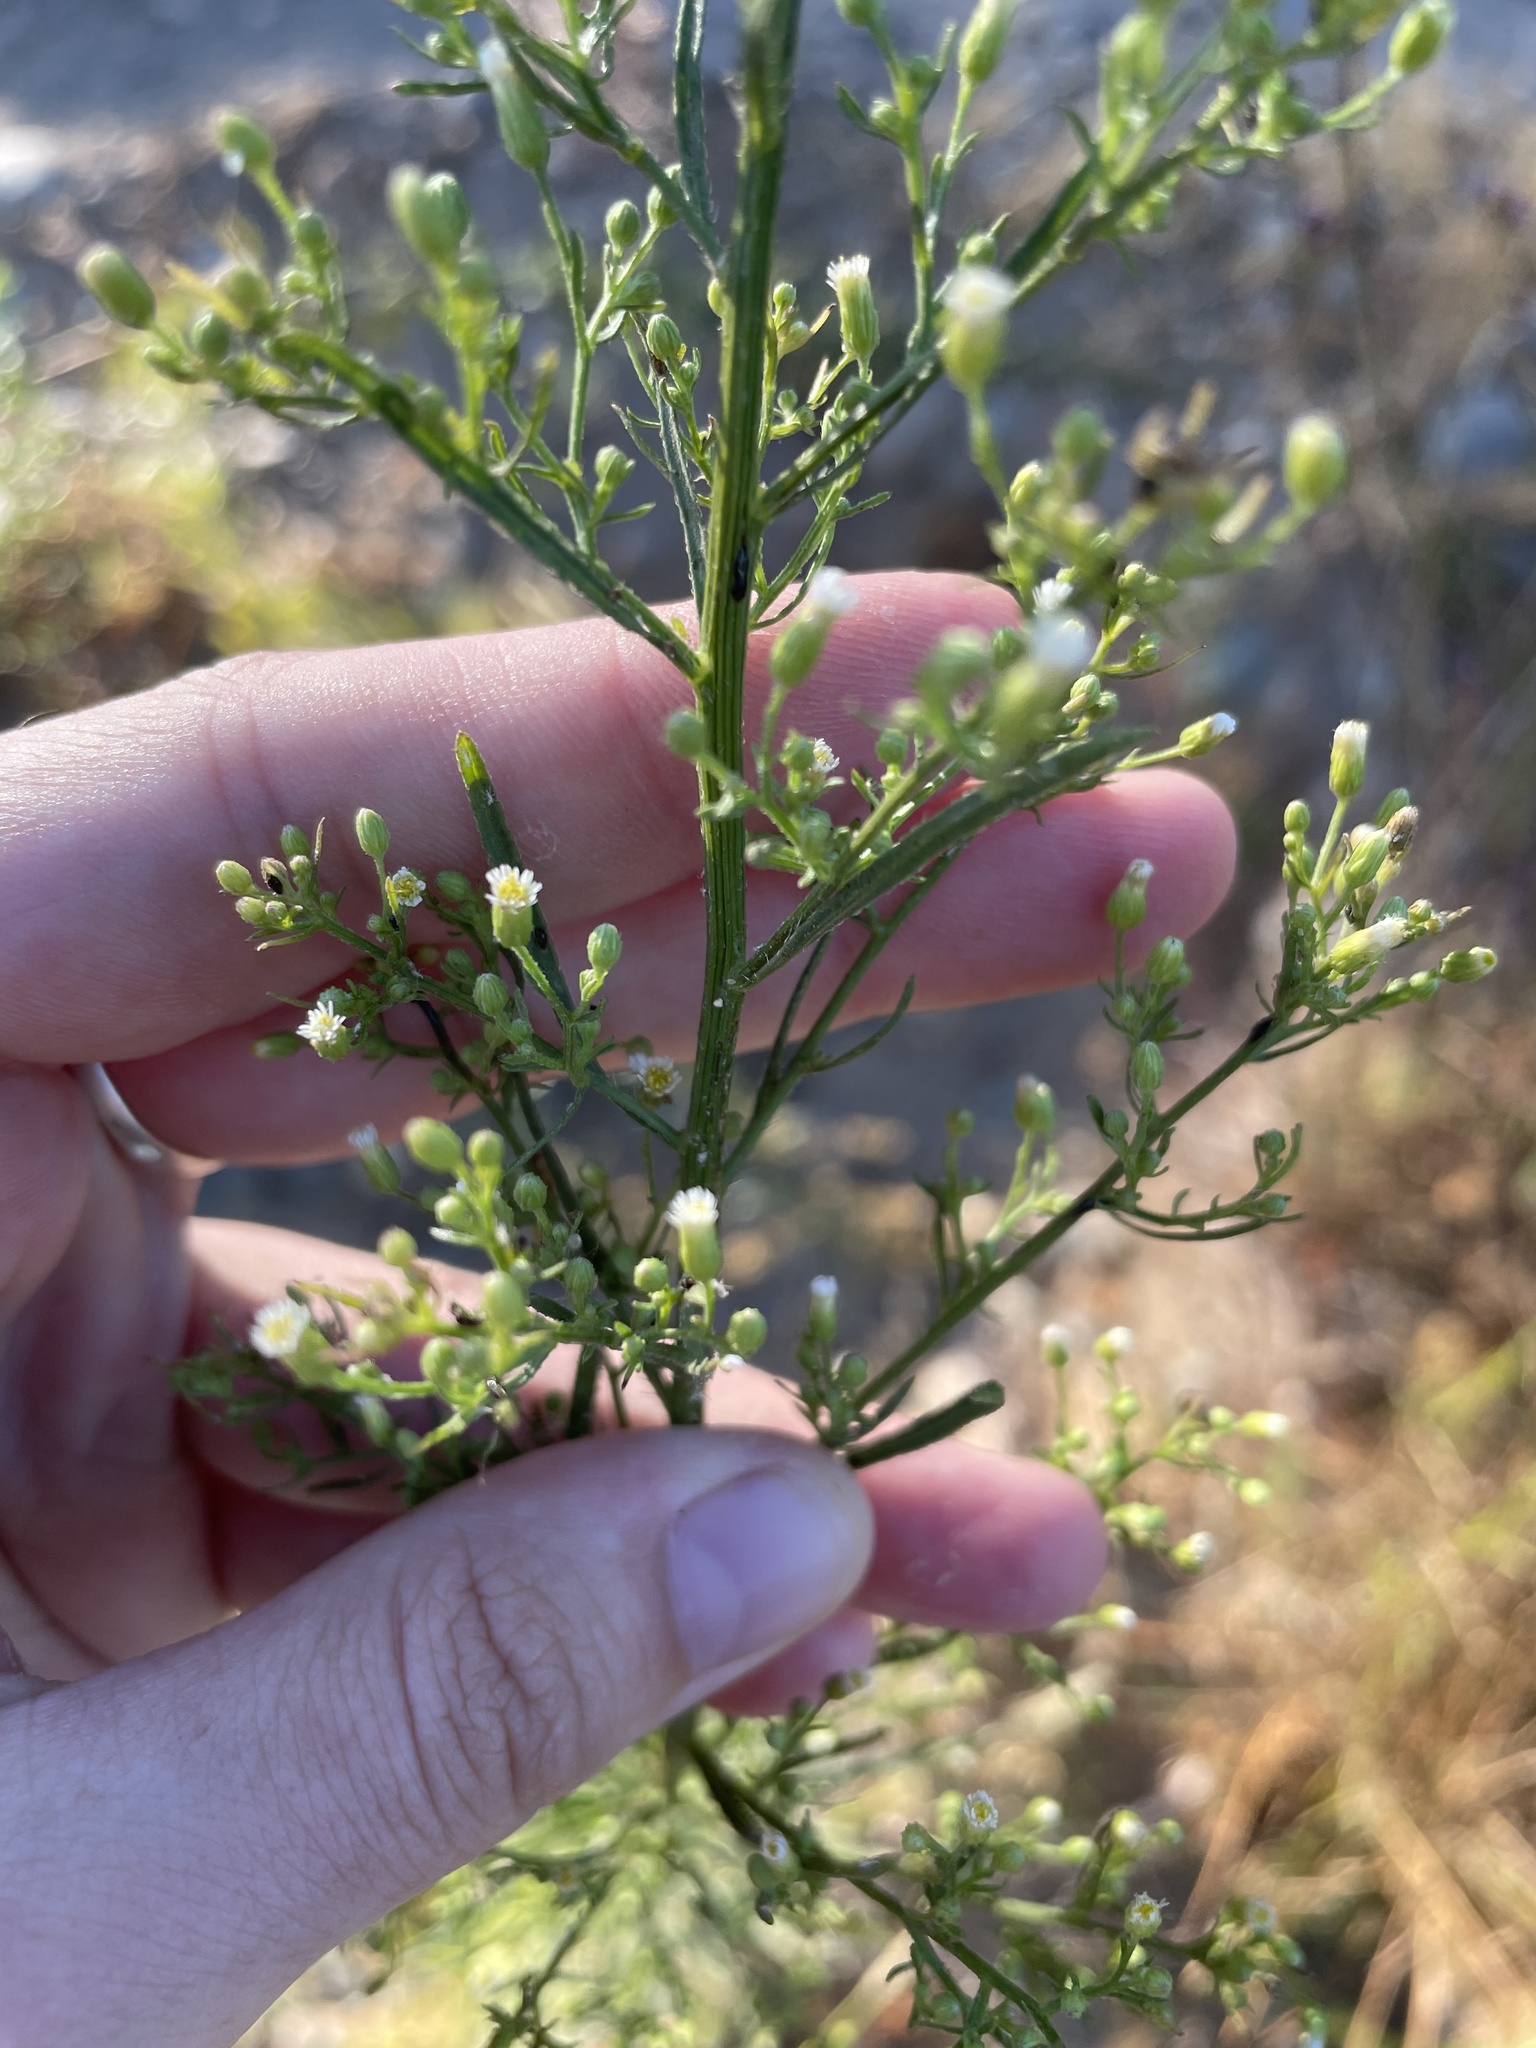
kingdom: Plantae
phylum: Tracheophyta
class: Magnoliopsida
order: Asterales
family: Asteraceae
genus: Erigeron
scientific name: Erigeron canadensis
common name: Canadian fleabane
